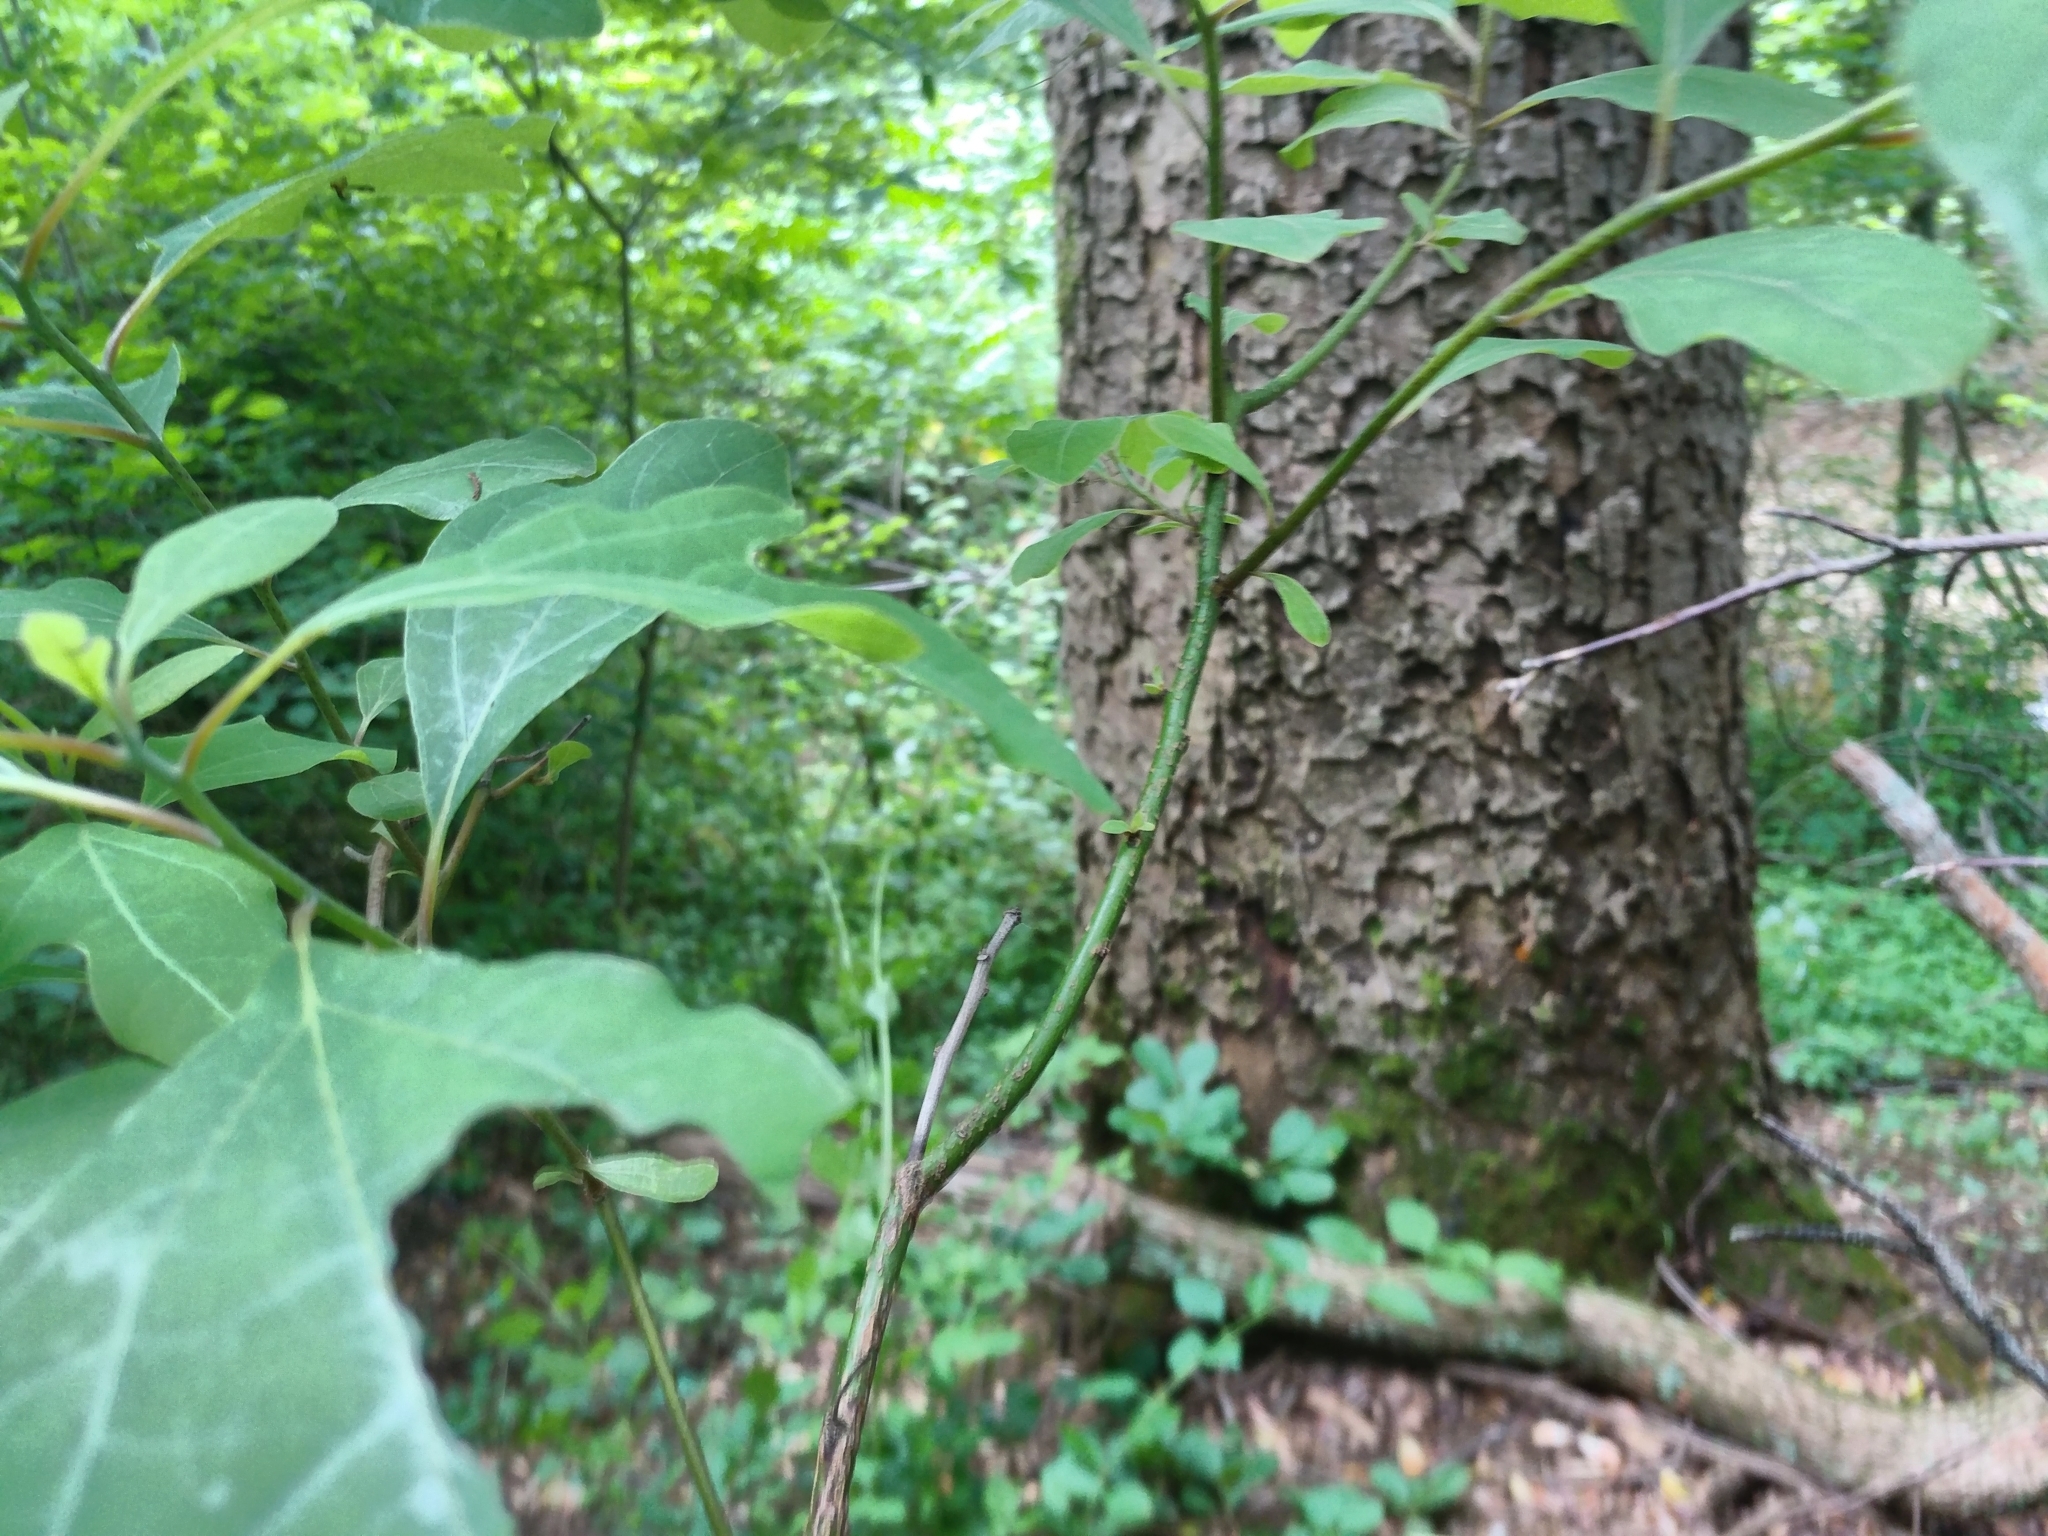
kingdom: Plantae
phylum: Tracheophyta
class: Magnoliopsida
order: Laurales
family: Lauraceae
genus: Sassafras
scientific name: Sassafras albidum
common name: Sassafras
